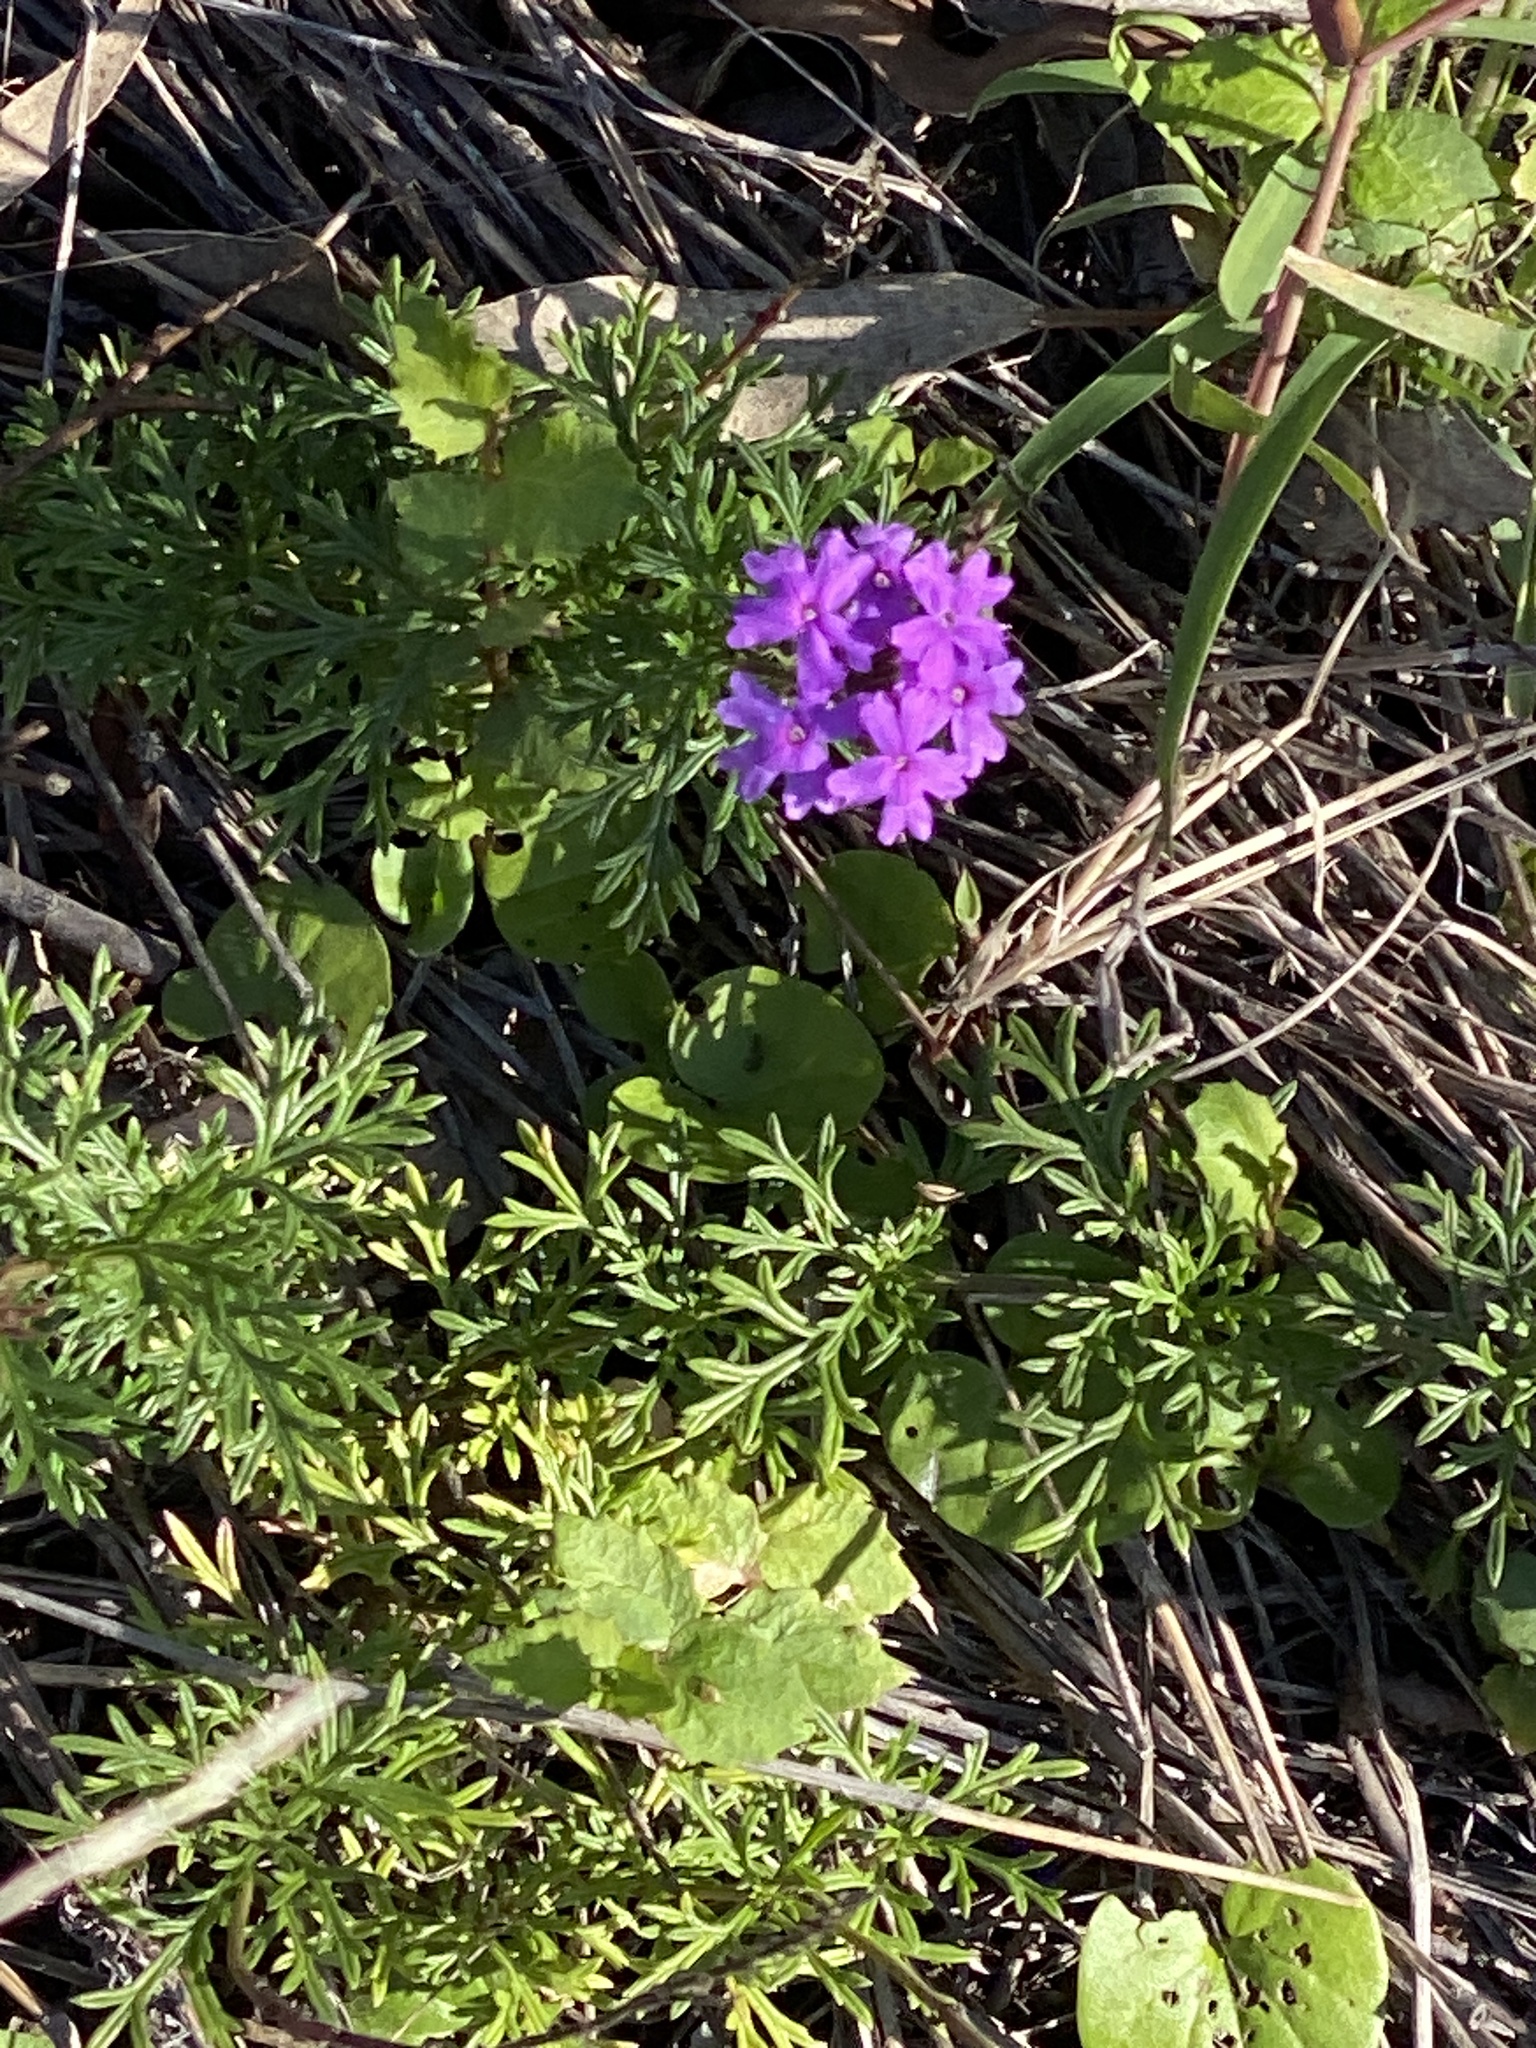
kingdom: Plantae
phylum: Tracheophyta
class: Magnoliopsida
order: Lamiales
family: Verbenaceae
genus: Verbena
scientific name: Verbena aristigera
